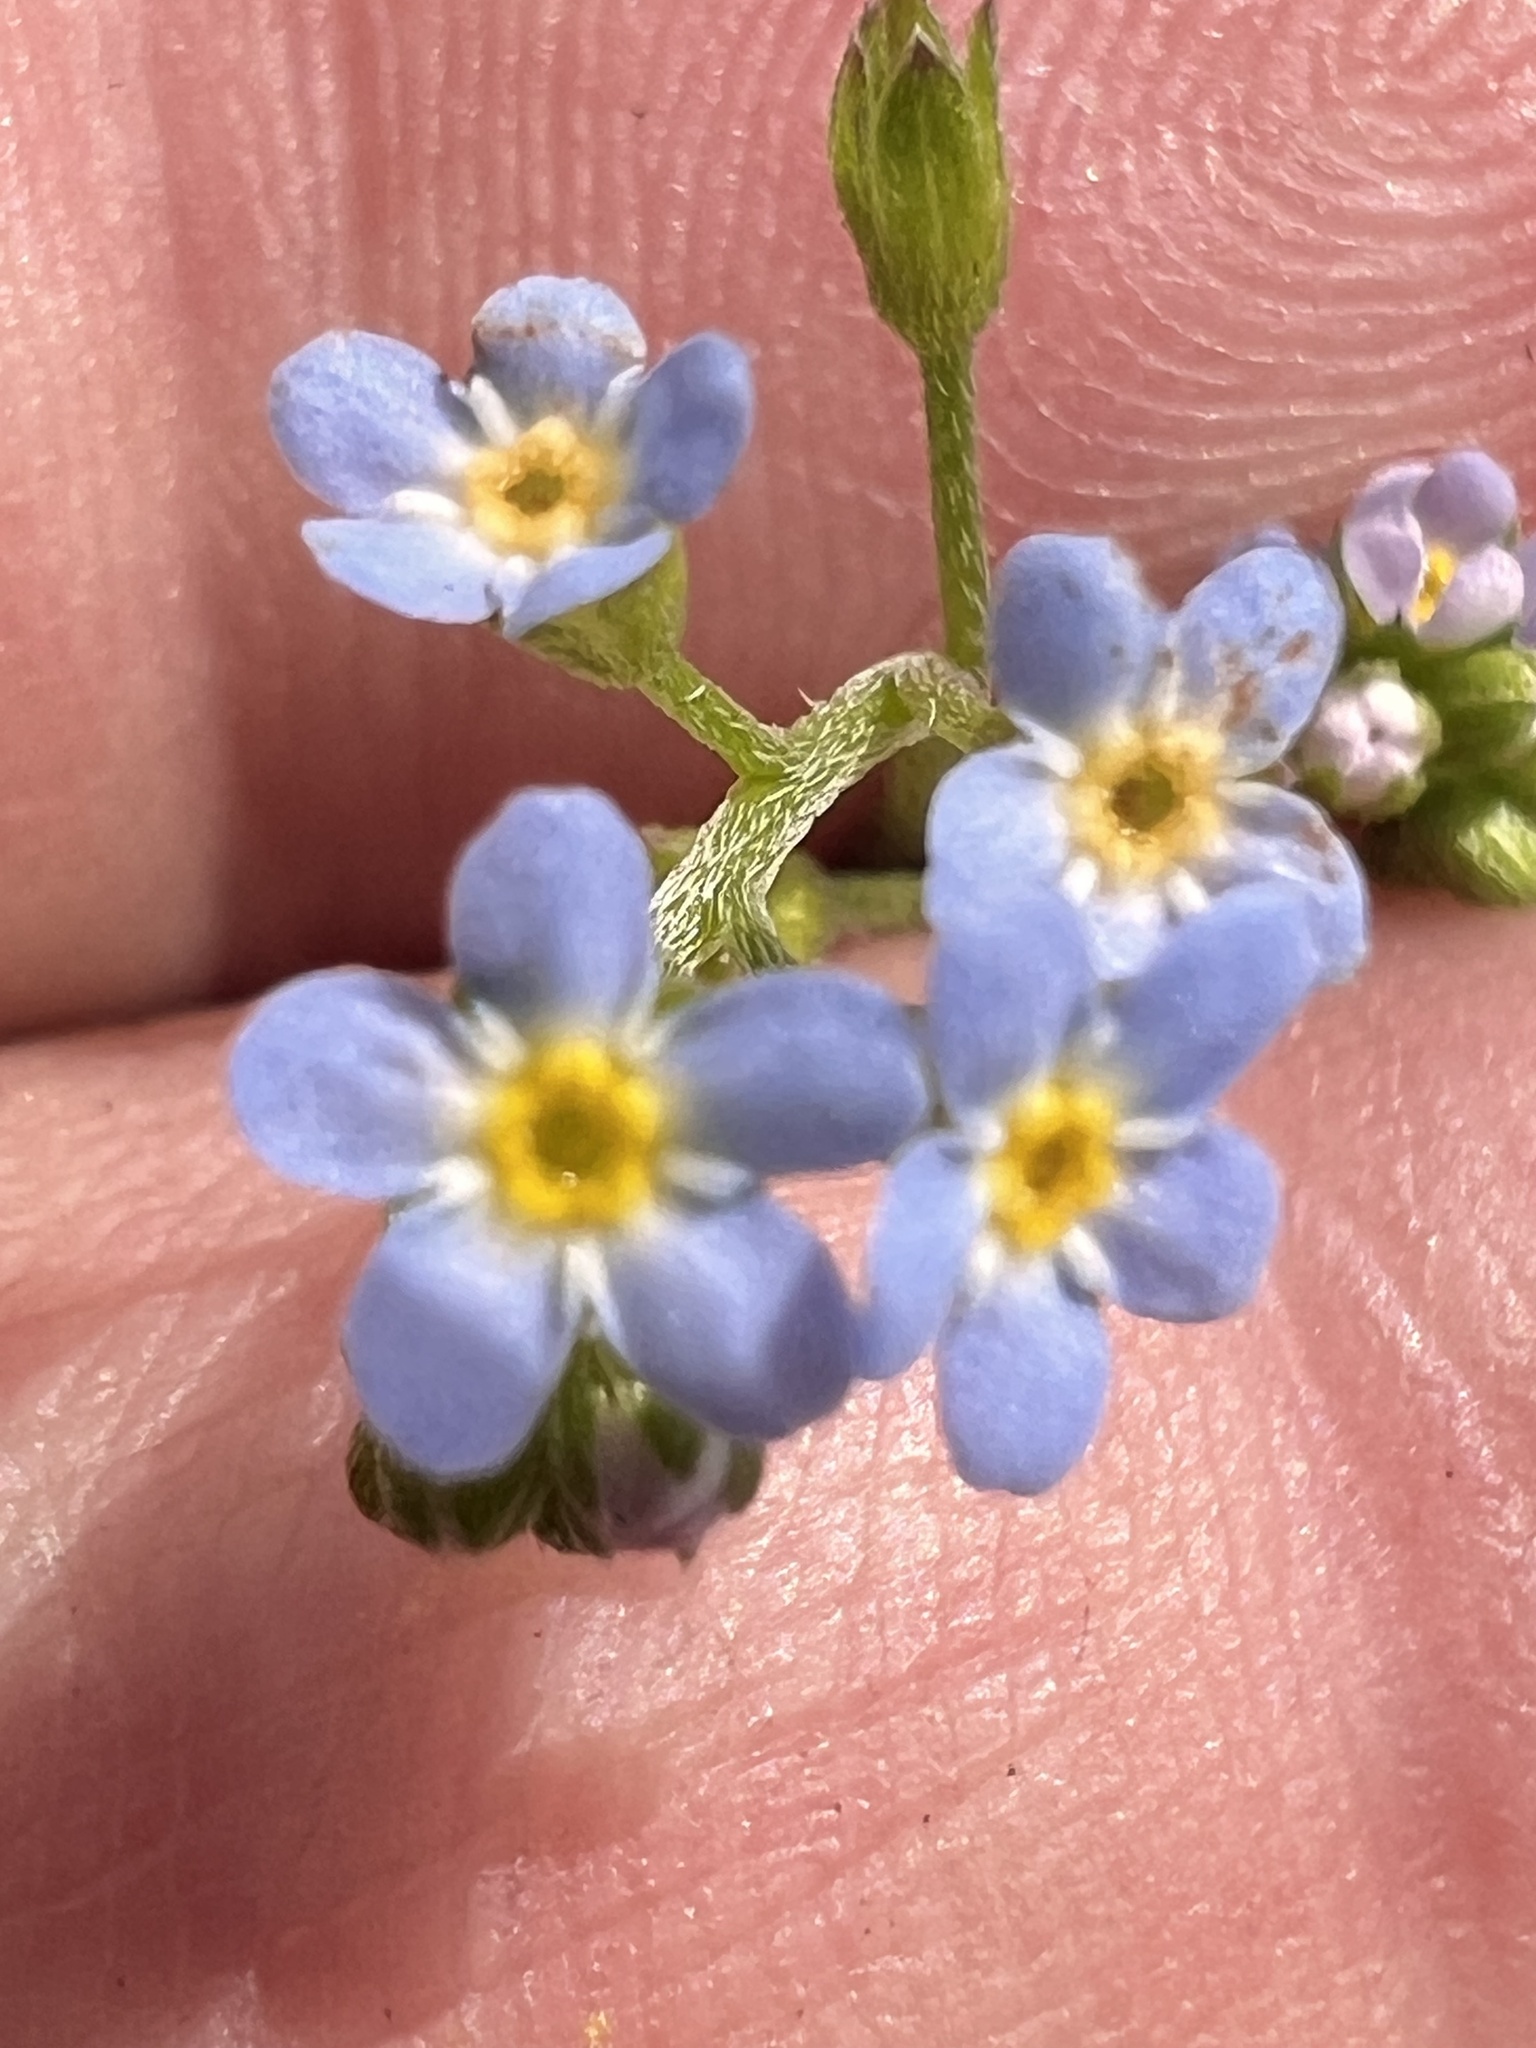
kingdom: Plantae
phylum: Tracheophyta
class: Magnoliopsida
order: Boraginales
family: Boraginaceae
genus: Myosotis
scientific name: Myosotis laxa
